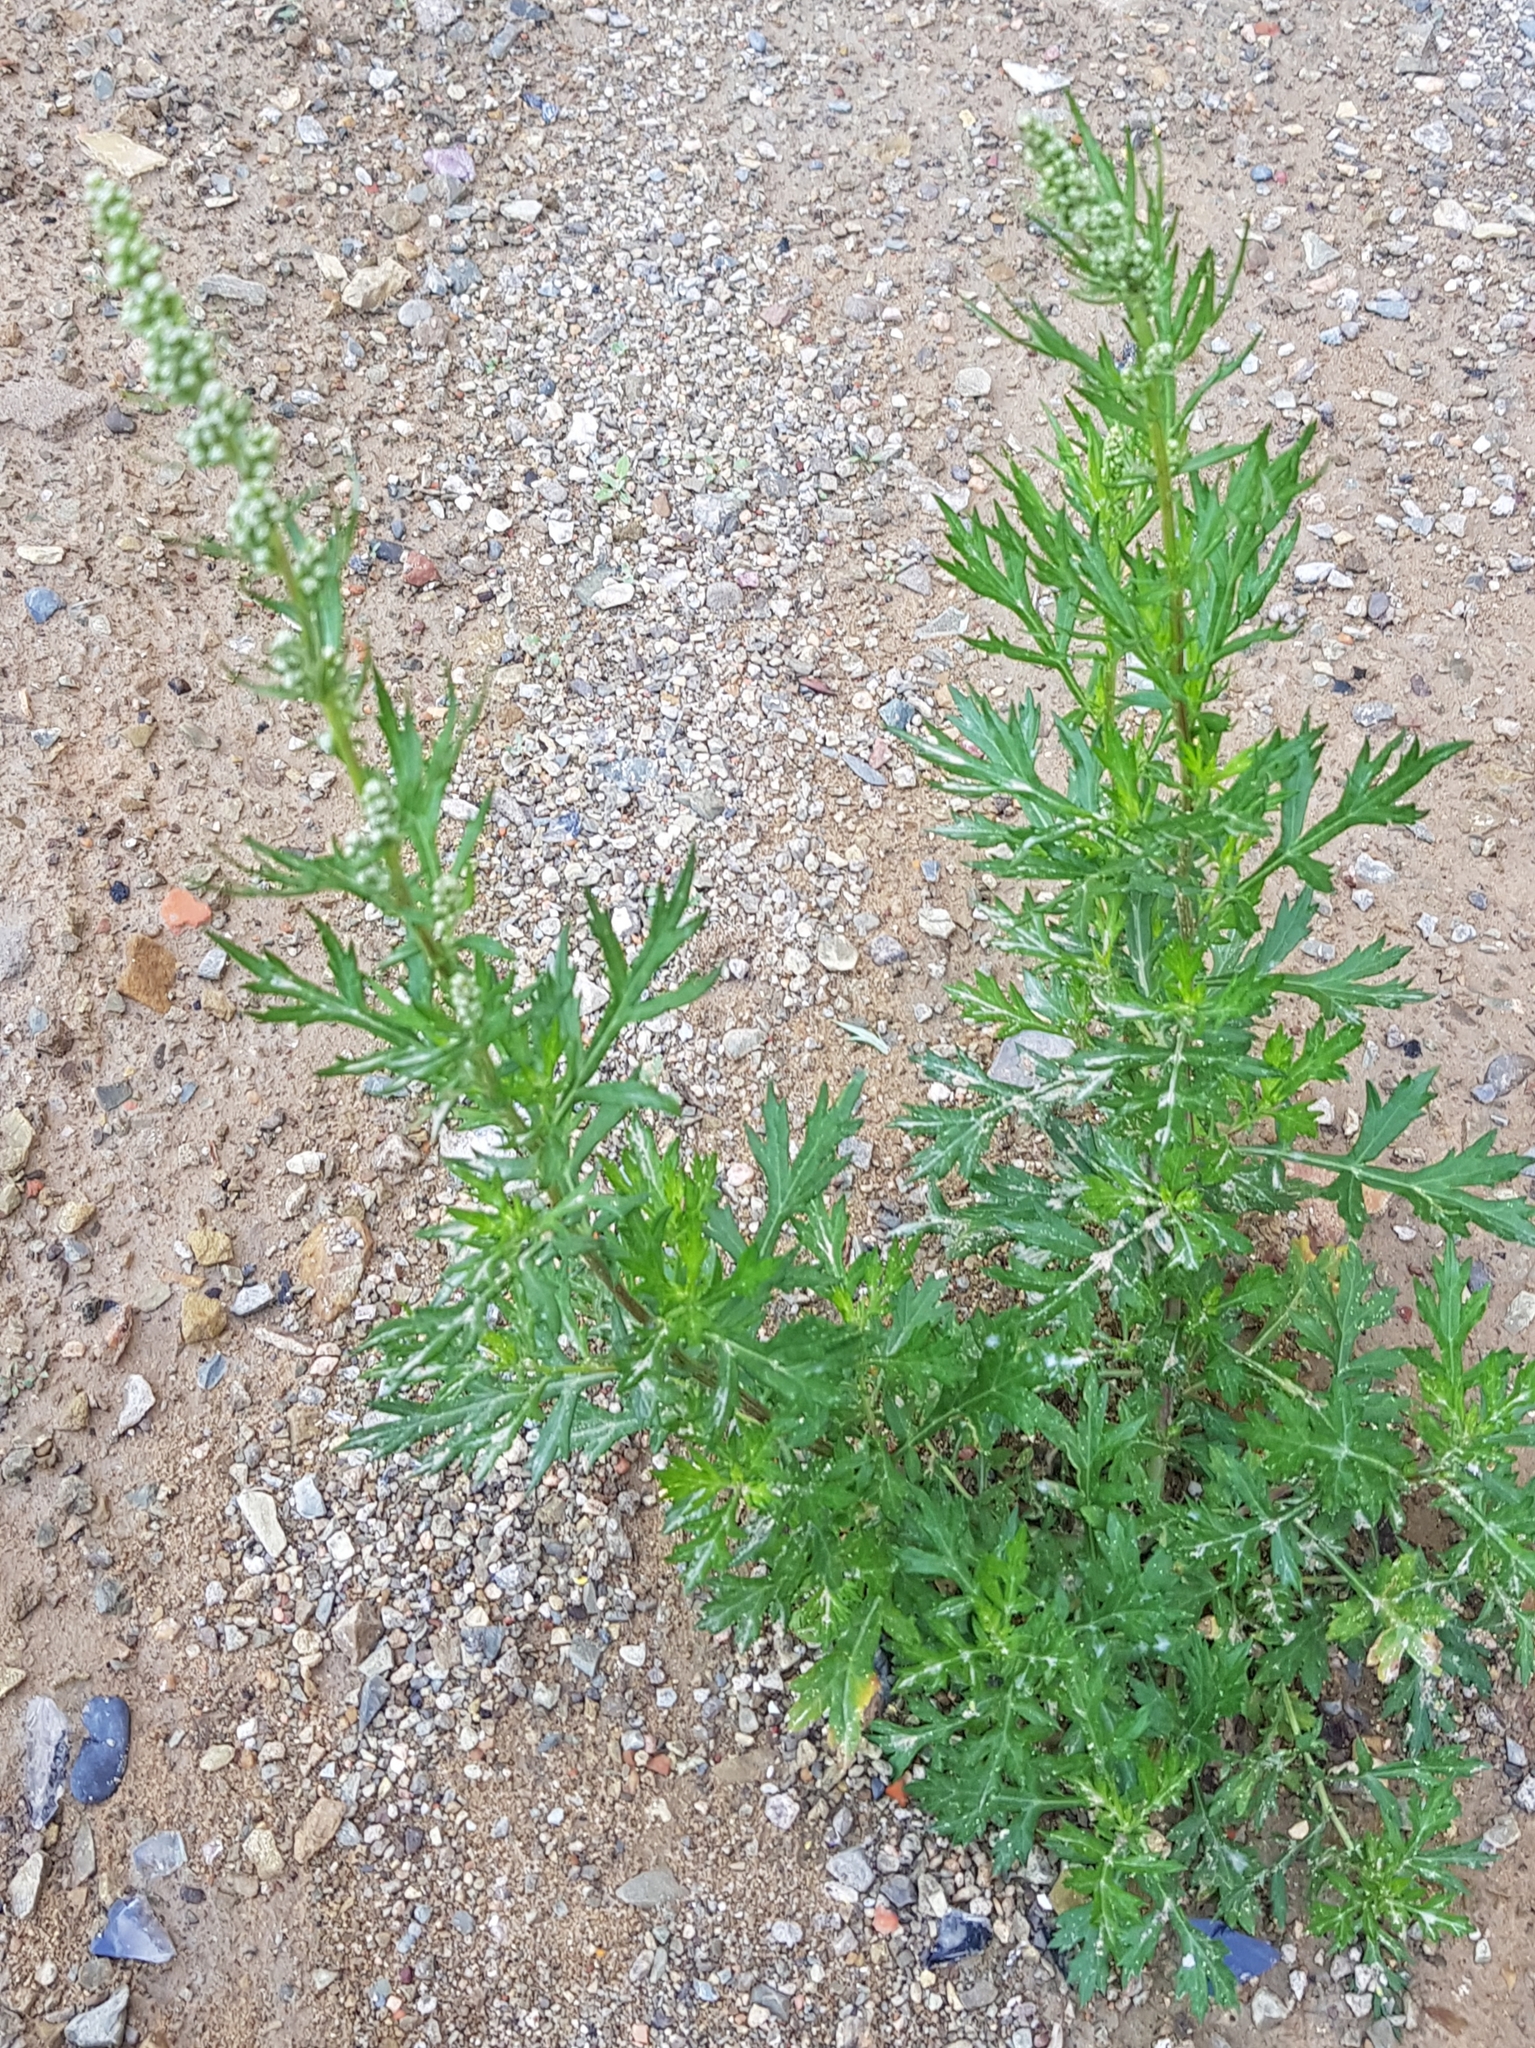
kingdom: Plantae
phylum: Tracheophyta
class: Magnoliopsida
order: Asterales
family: Asteraceae
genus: Artemisia
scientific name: Artemisia vulgaris
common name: Mugwort
